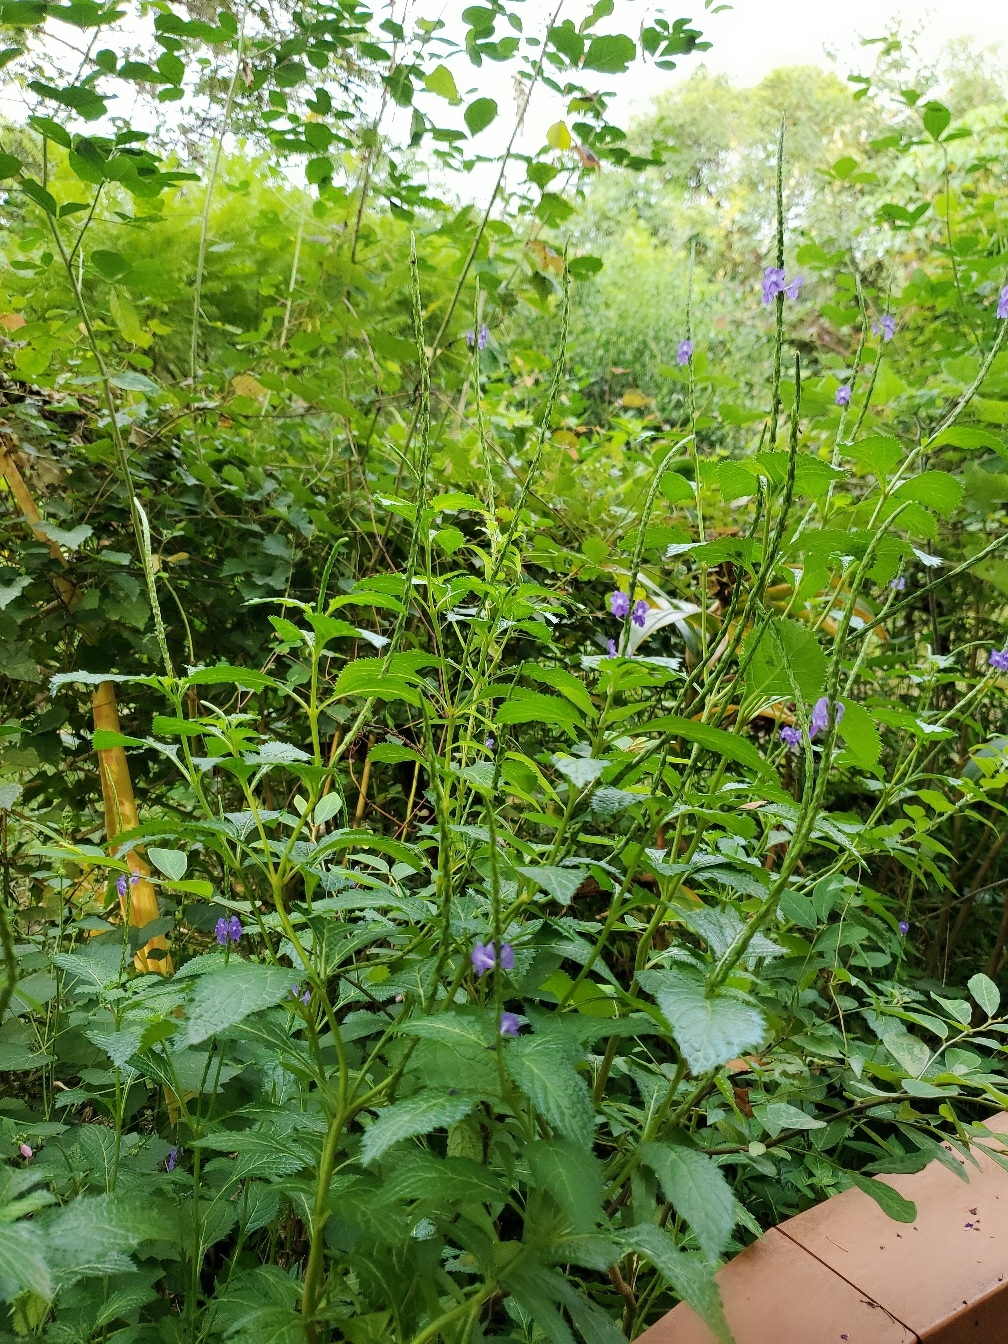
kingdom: Plantae
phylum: Tracheophyta
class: Magnoliopsida
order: Lamiales
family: Verbenaceae
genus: Stachytarpheta
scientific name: Stachytarpheta urticifolia
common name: Nettleleaf velvetberry
